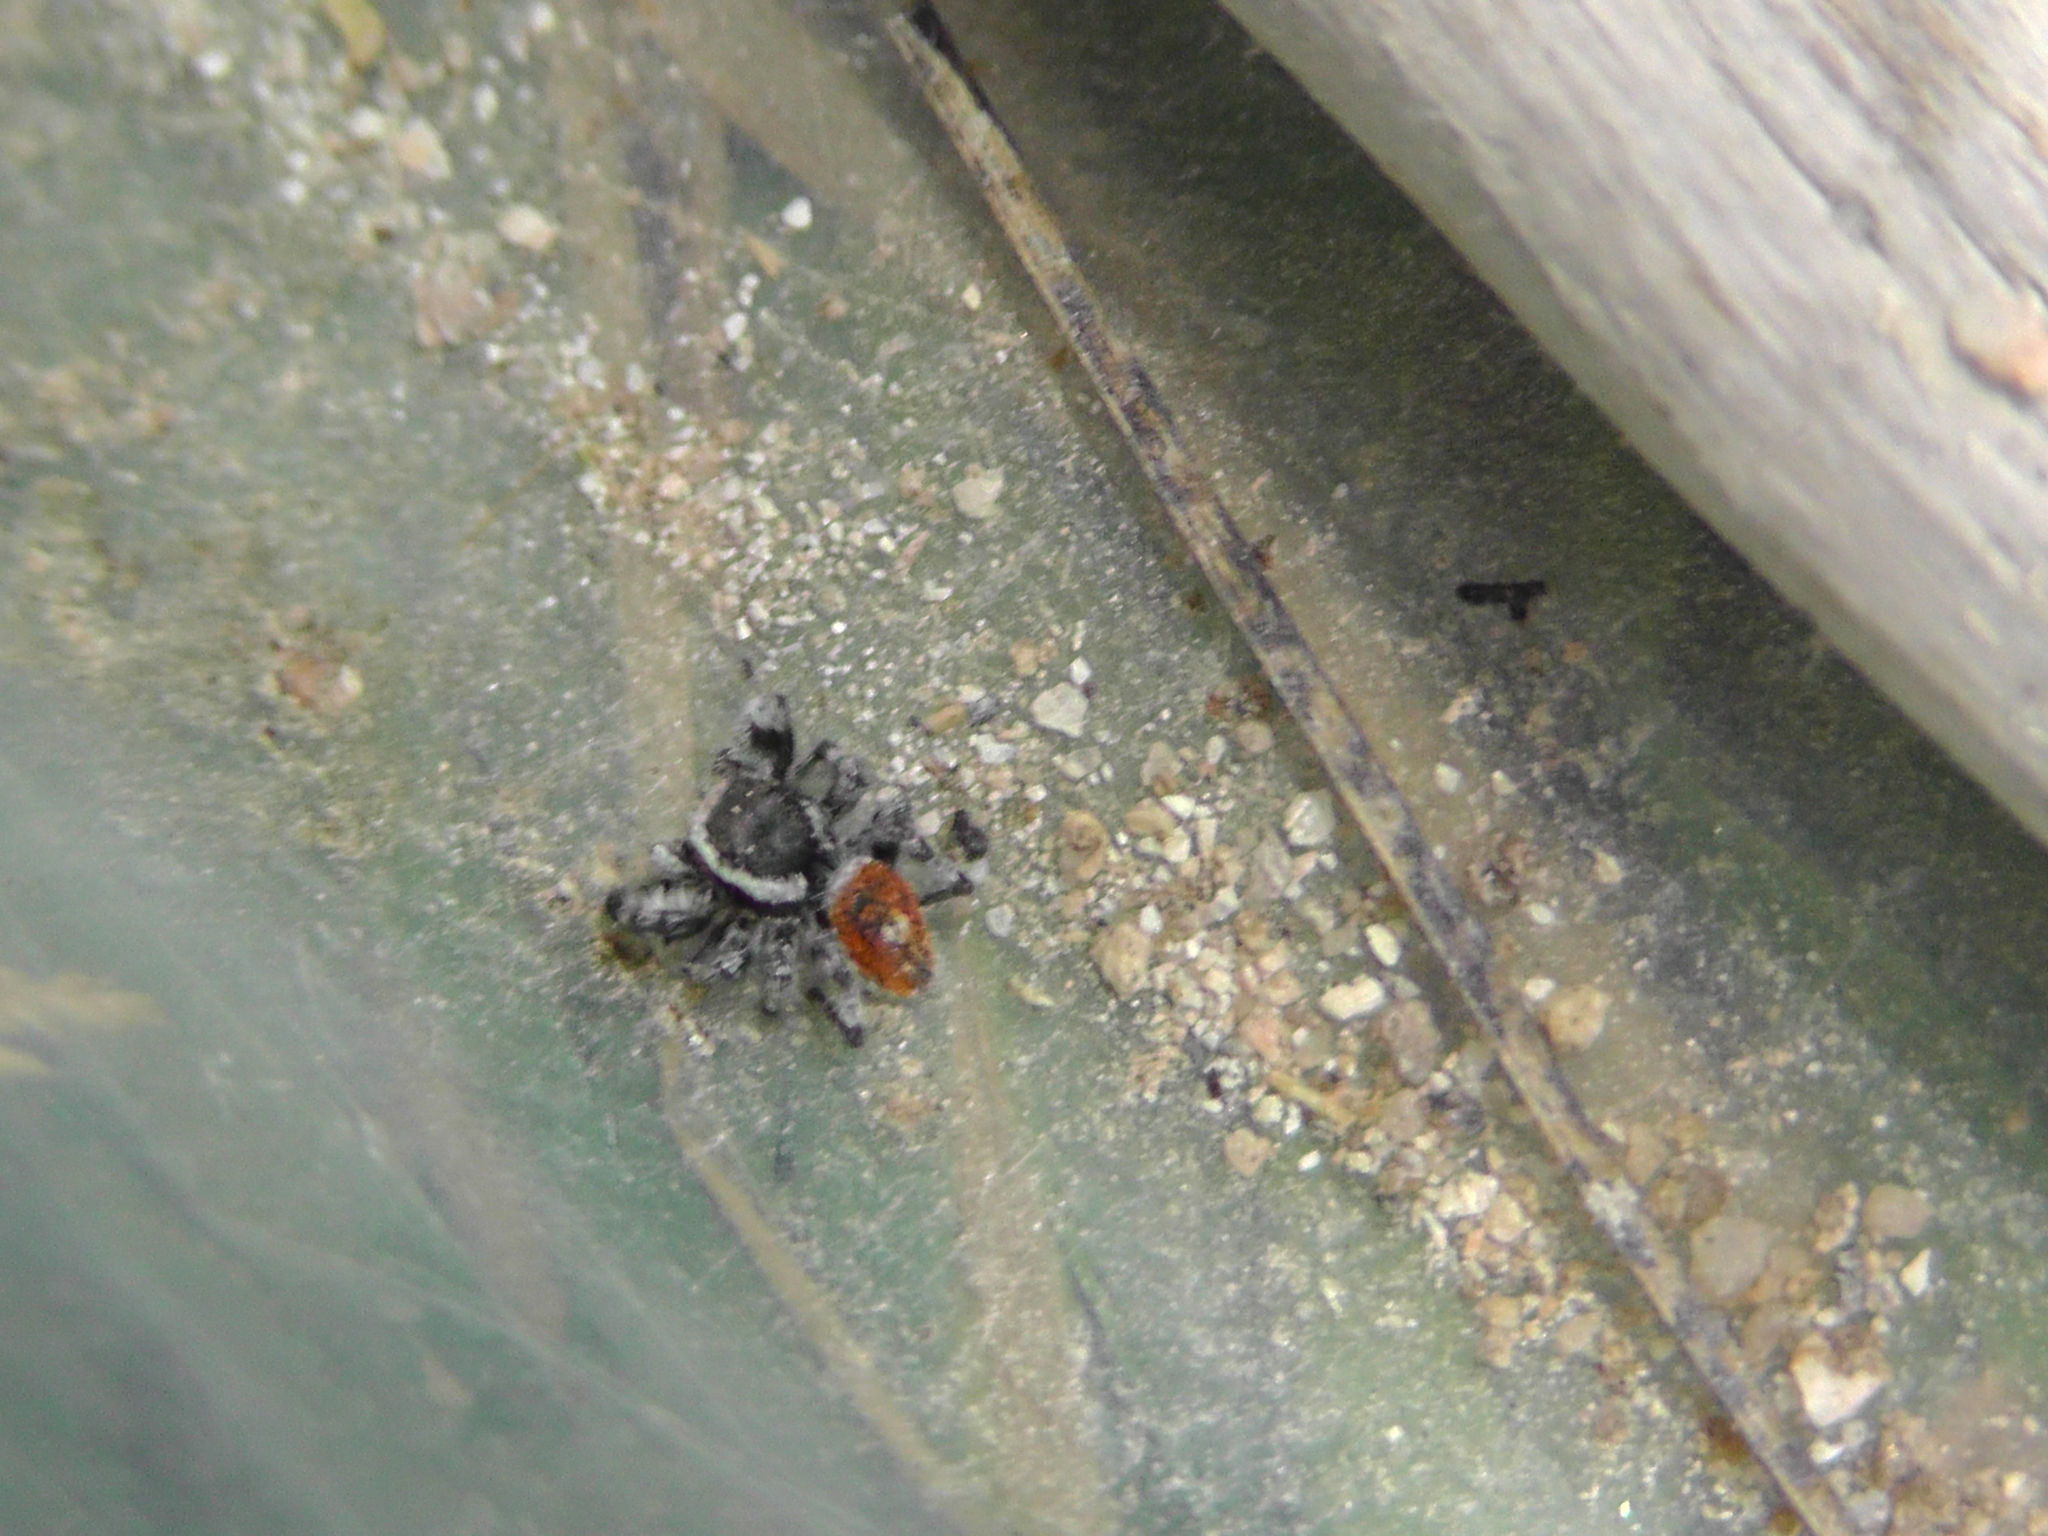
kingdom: Animalia
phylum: Arthropoda
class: Arachnida
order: Araneae
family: Salticidae
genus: Phidippus
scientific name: Phidippus tyrrelli
